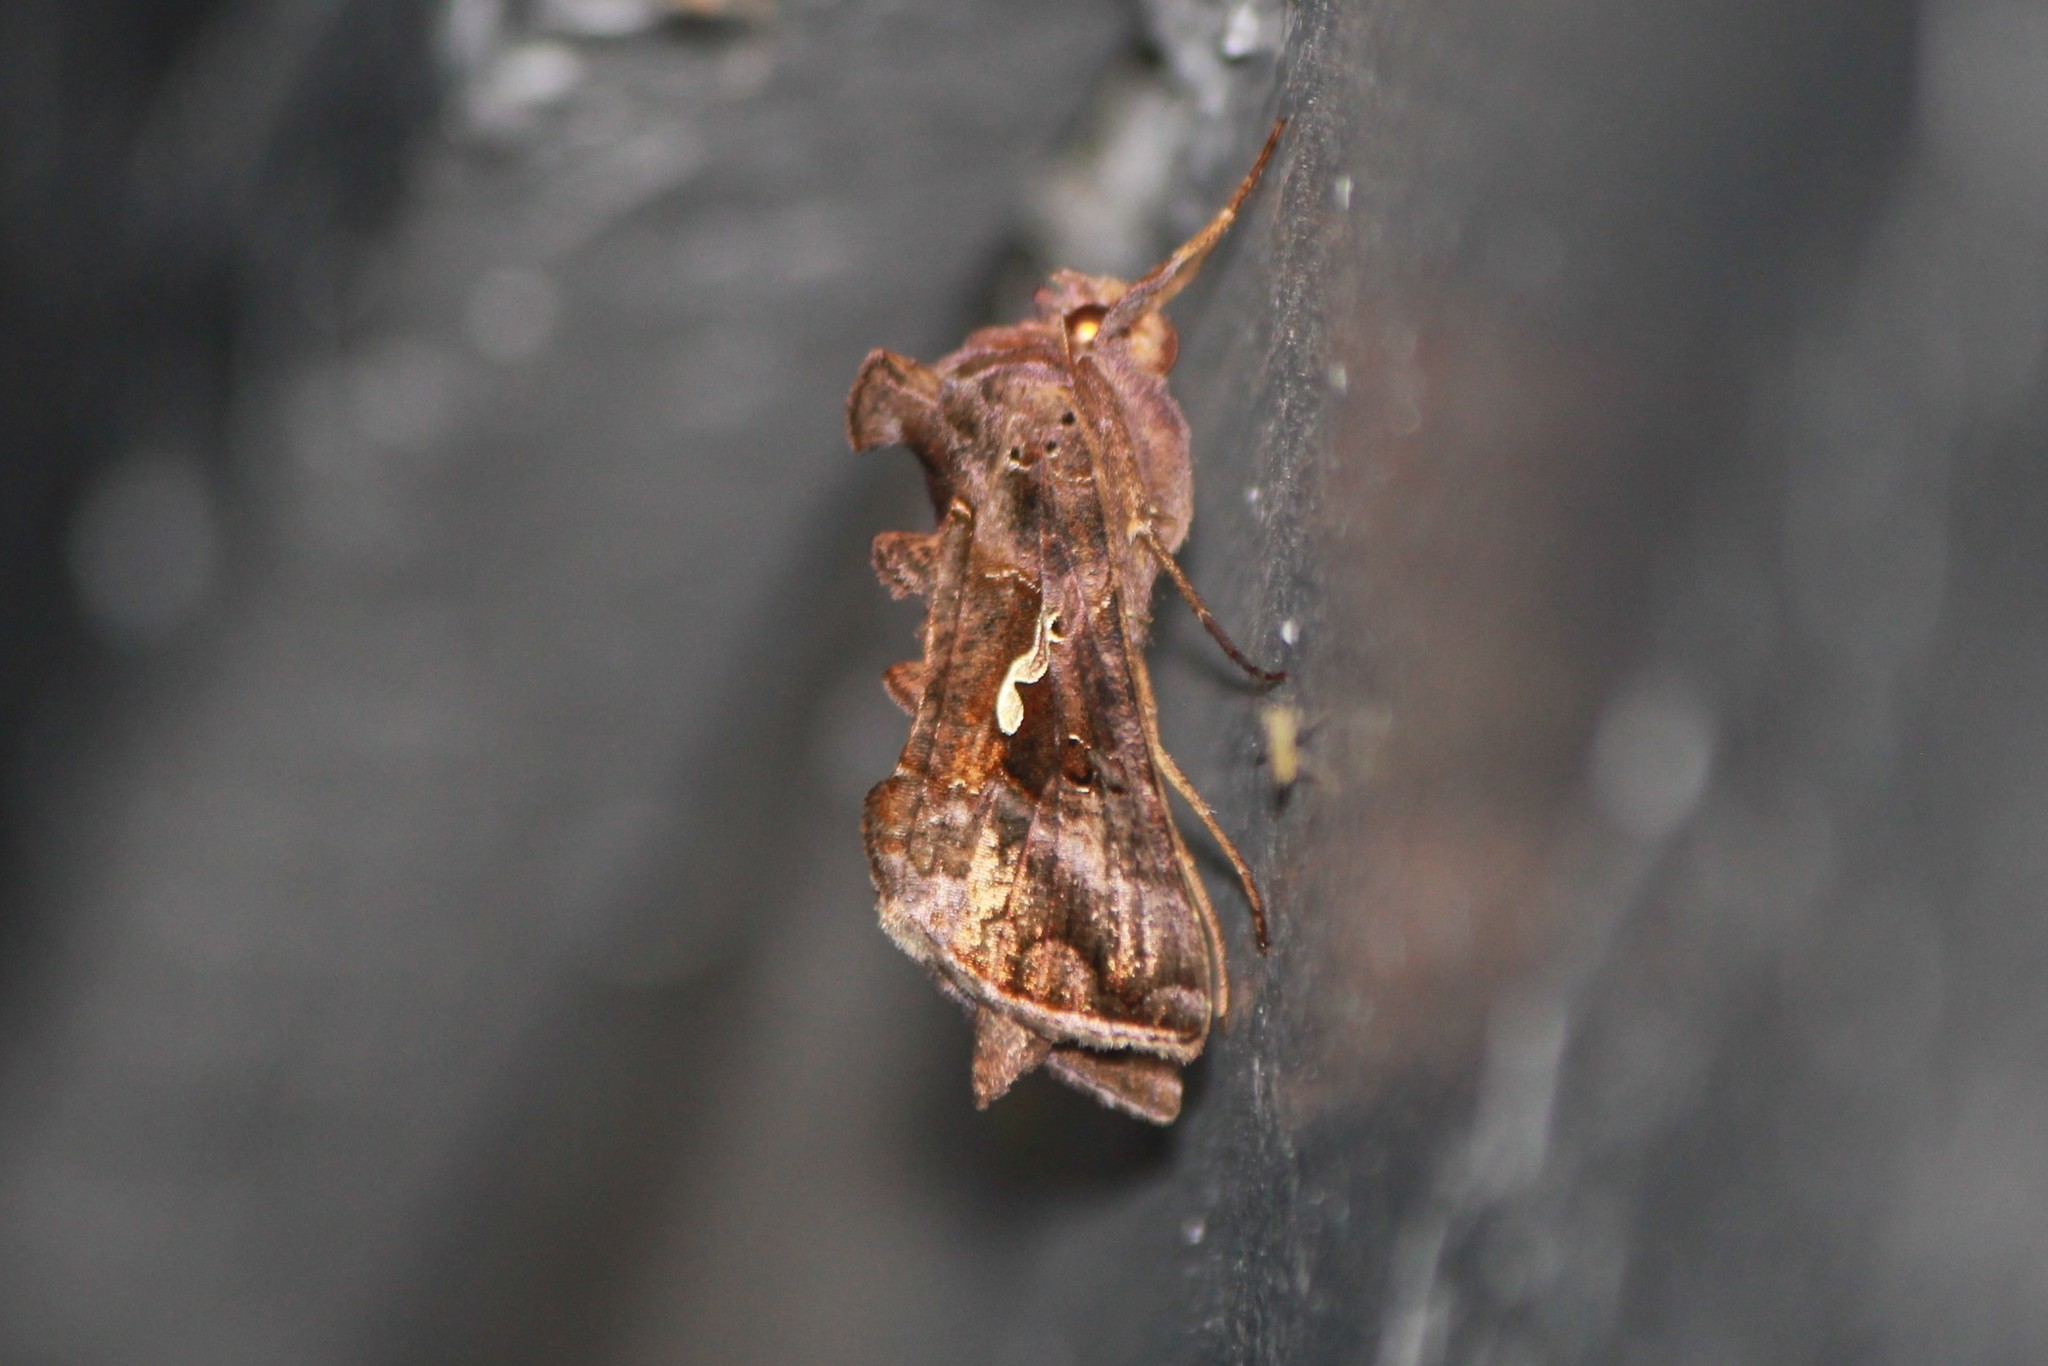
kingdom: Animalia
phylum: Arthropoda
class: Insecta
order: Lepidoptera
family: Noctuidae
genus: Autographa
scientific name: Autographa precationis
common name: Common looper moth
